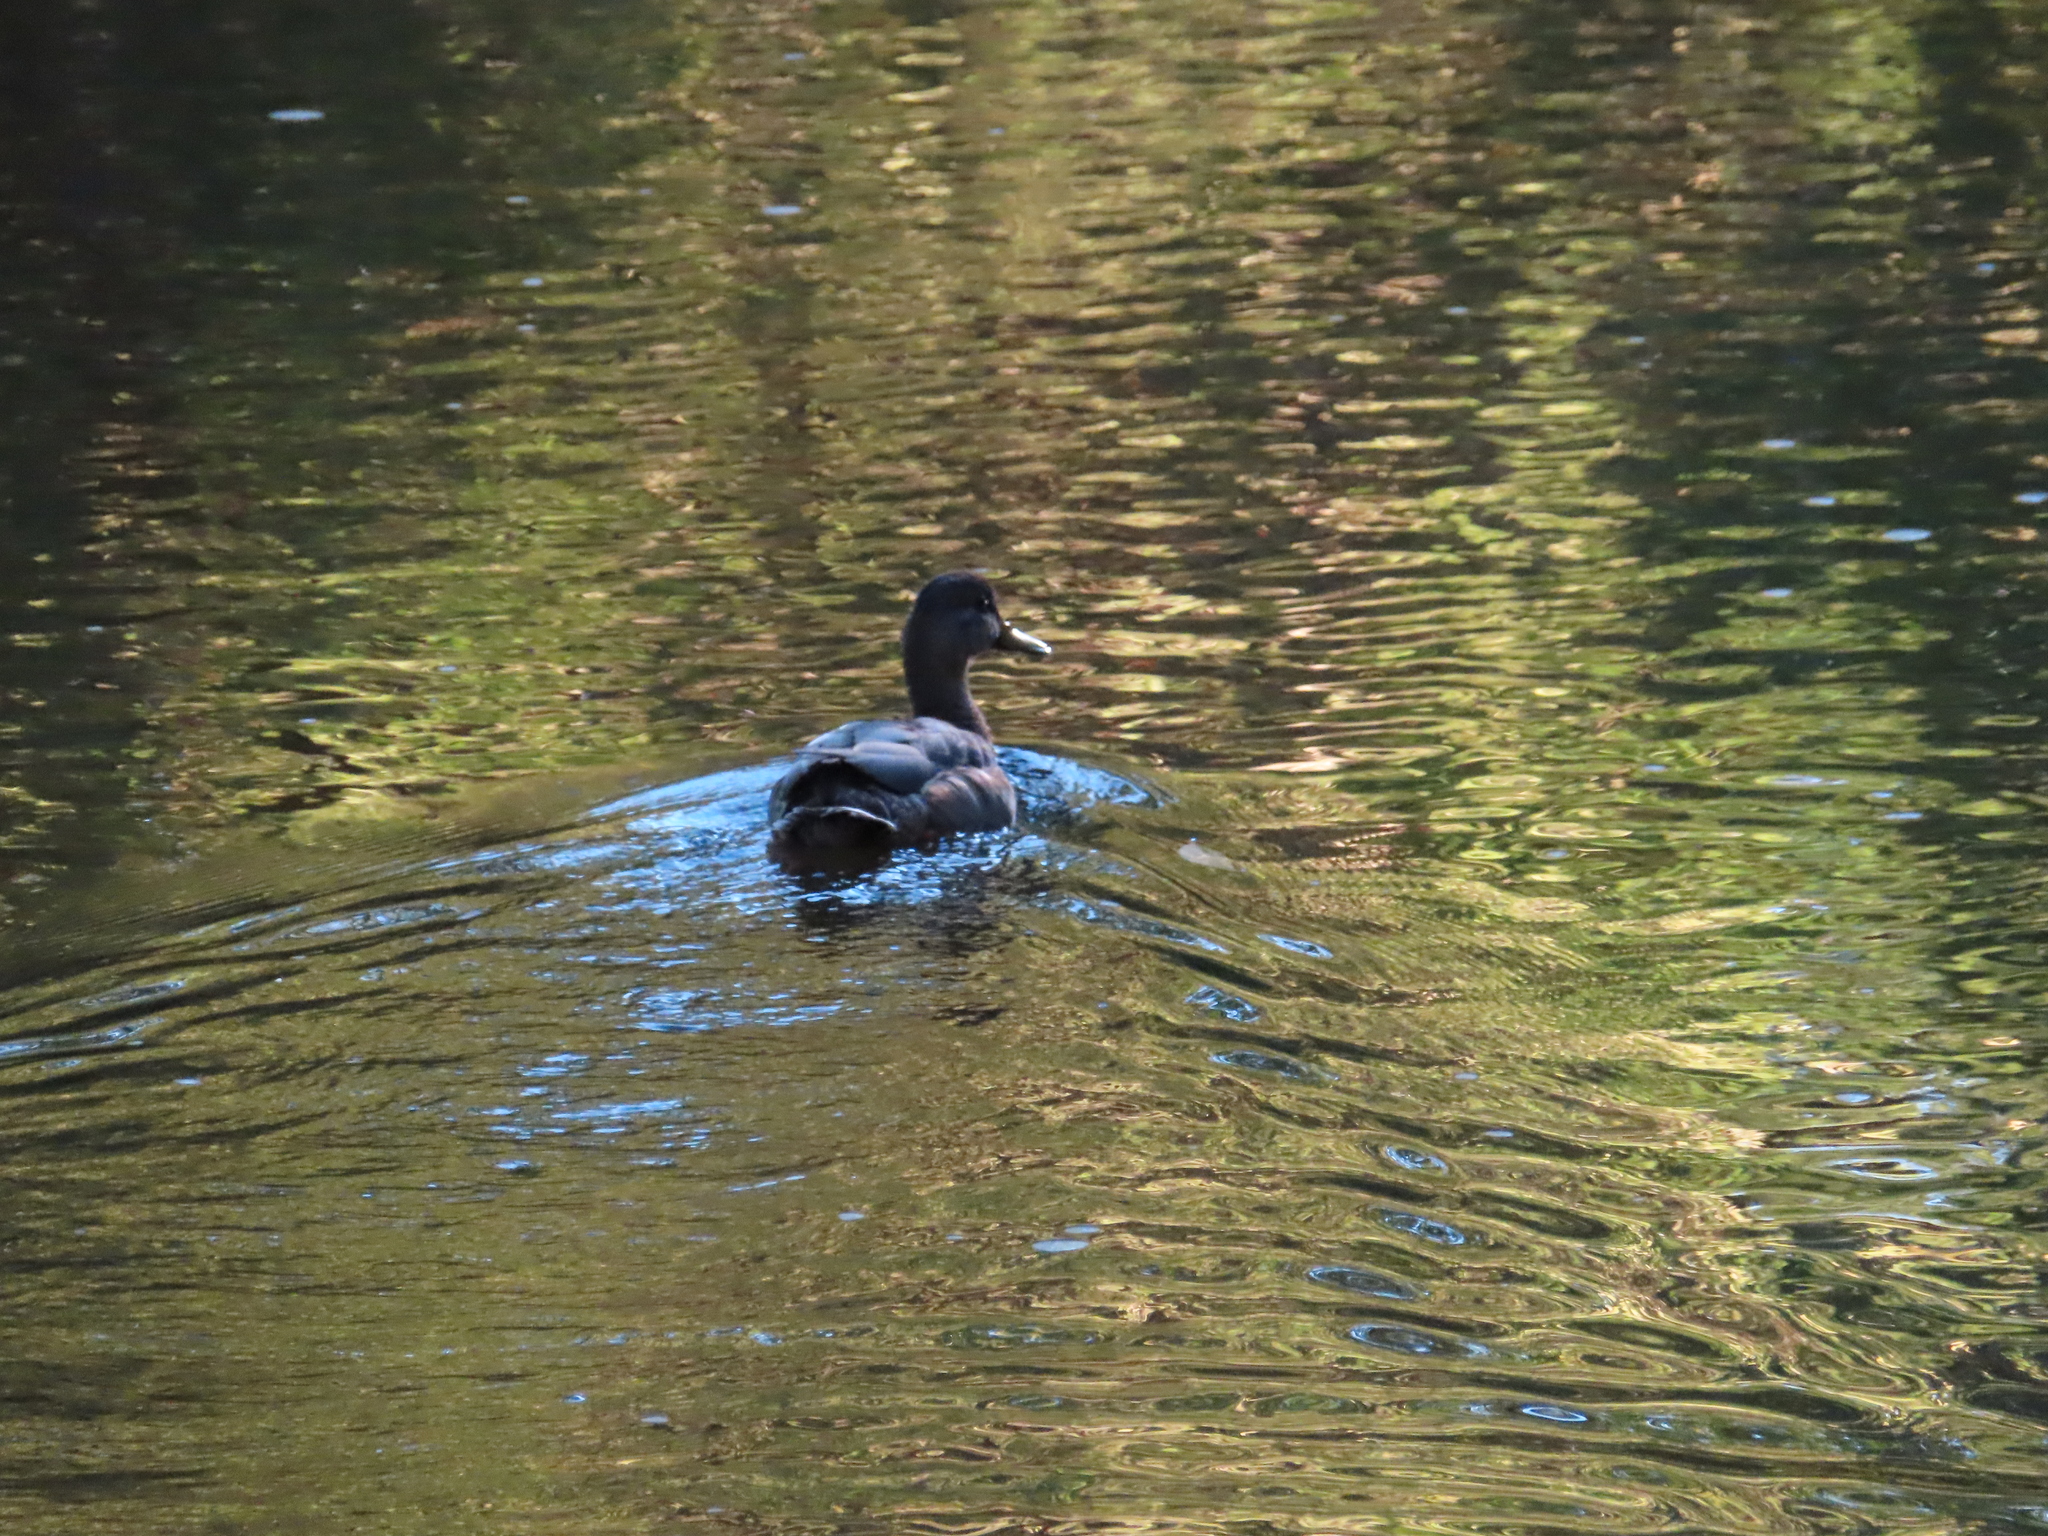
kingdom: Animalia
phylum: Chordata
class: Aves
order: Anseriformes
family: Anatidae
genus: Anas
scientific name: Anas platyrhynchos
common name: Mallard
